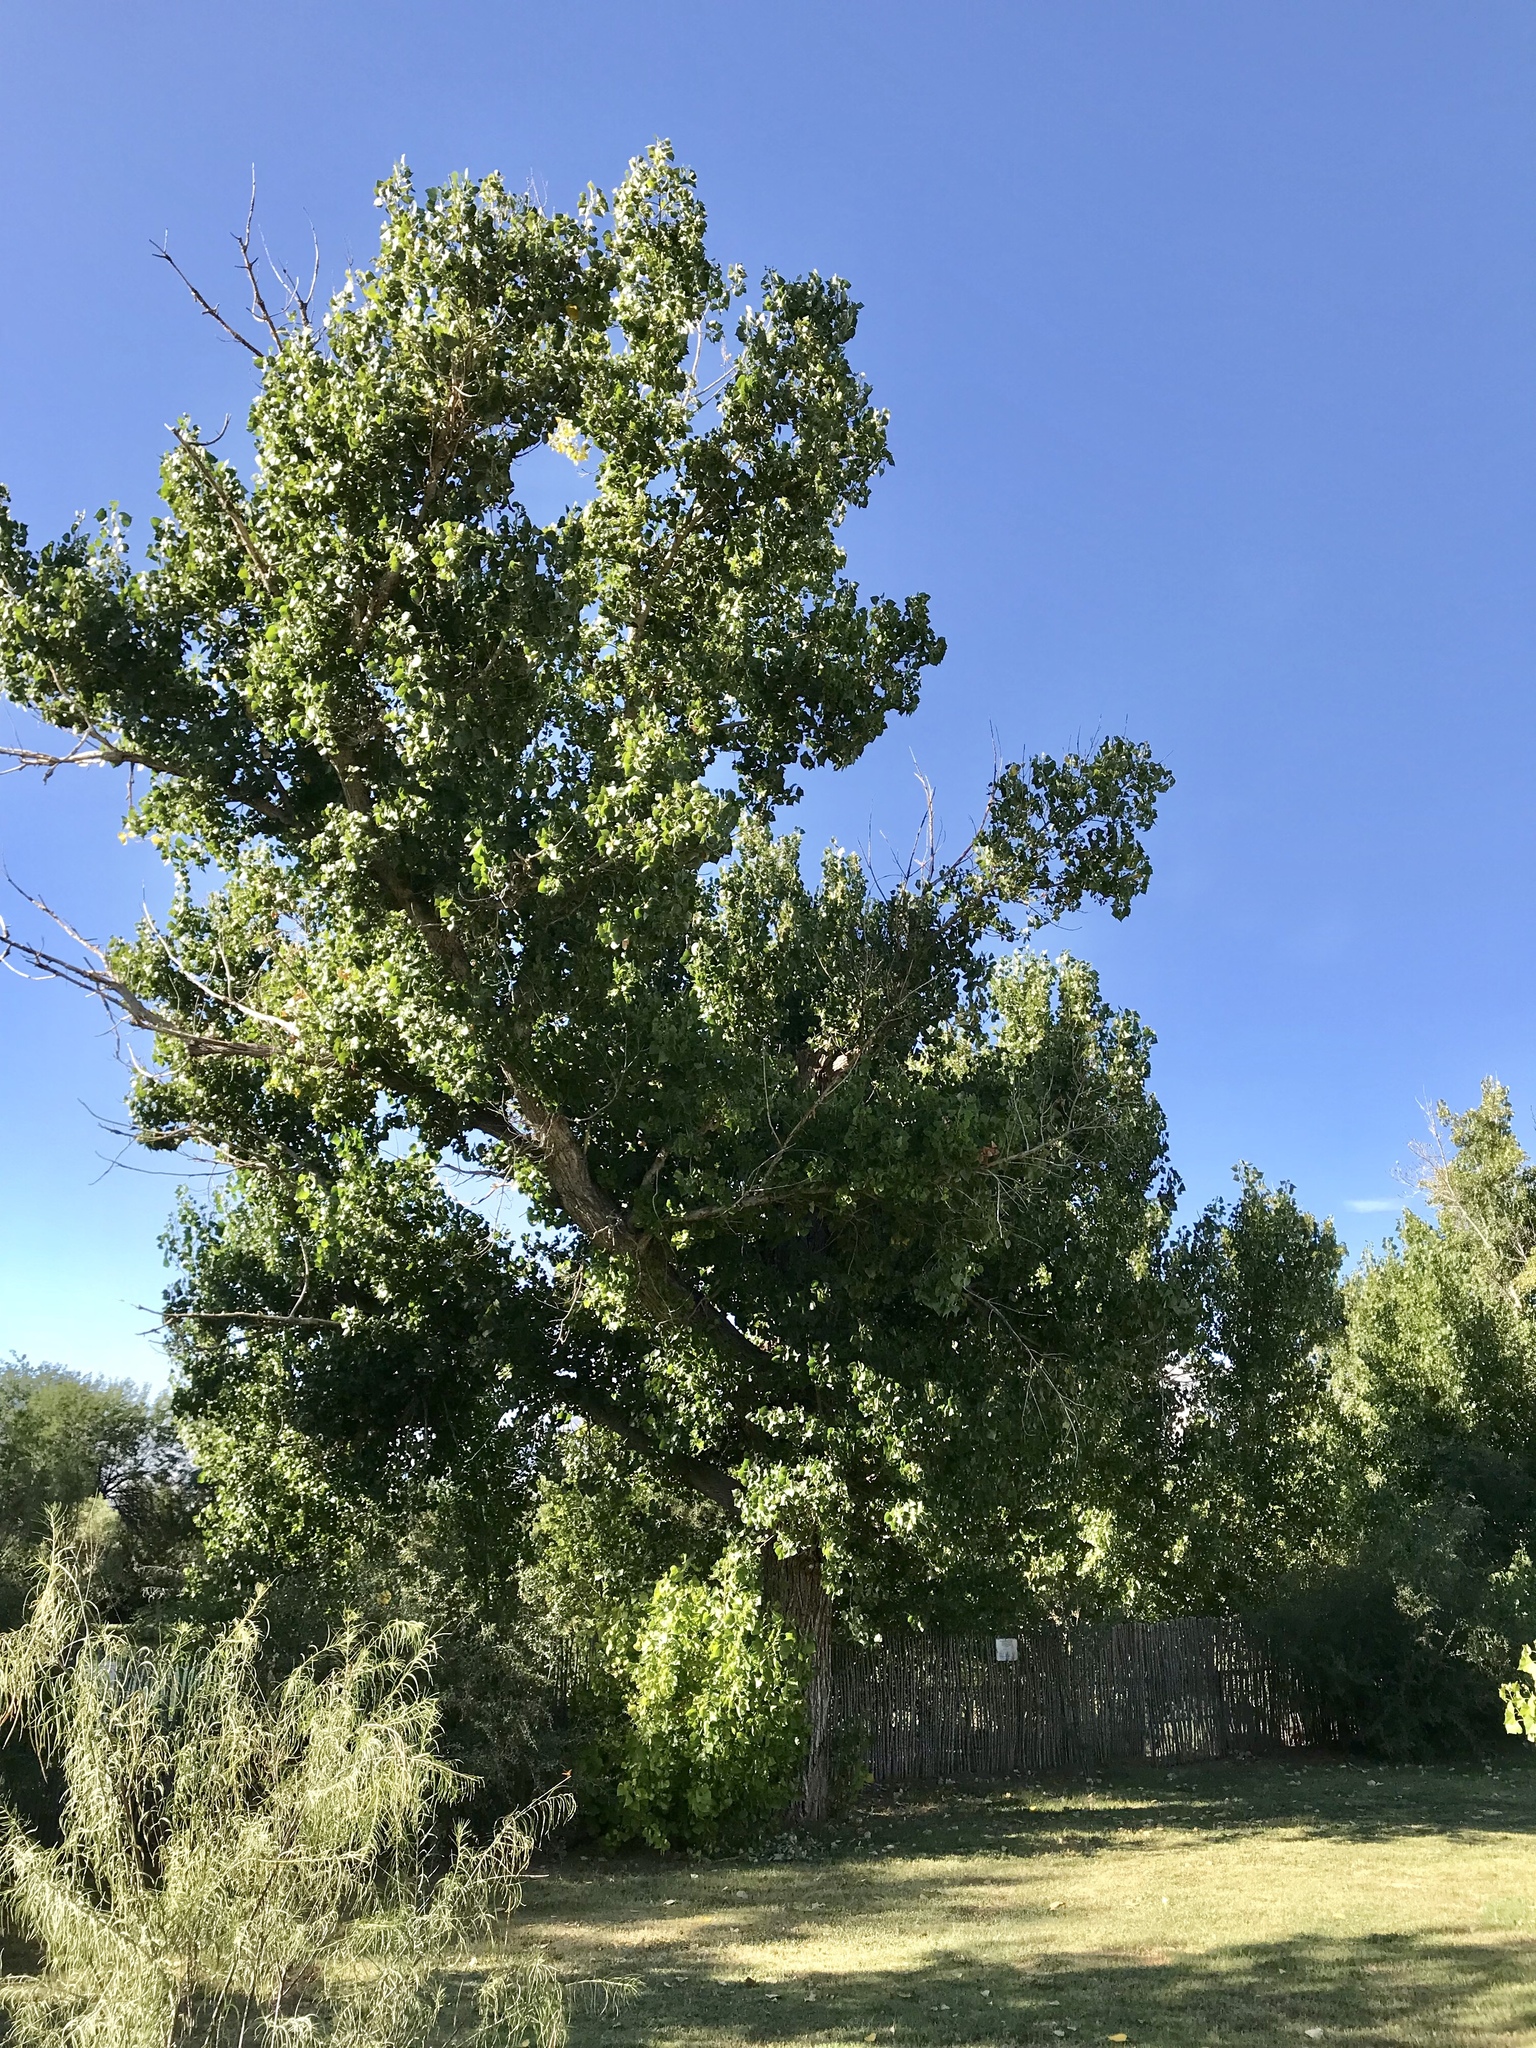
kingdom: Plantae
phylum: Tracheophyta
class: Magnoliopsida
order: Malpighiales
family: Salicaceae
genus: Populus
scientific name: Populus fremontii
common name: Fremont's cottonwood
